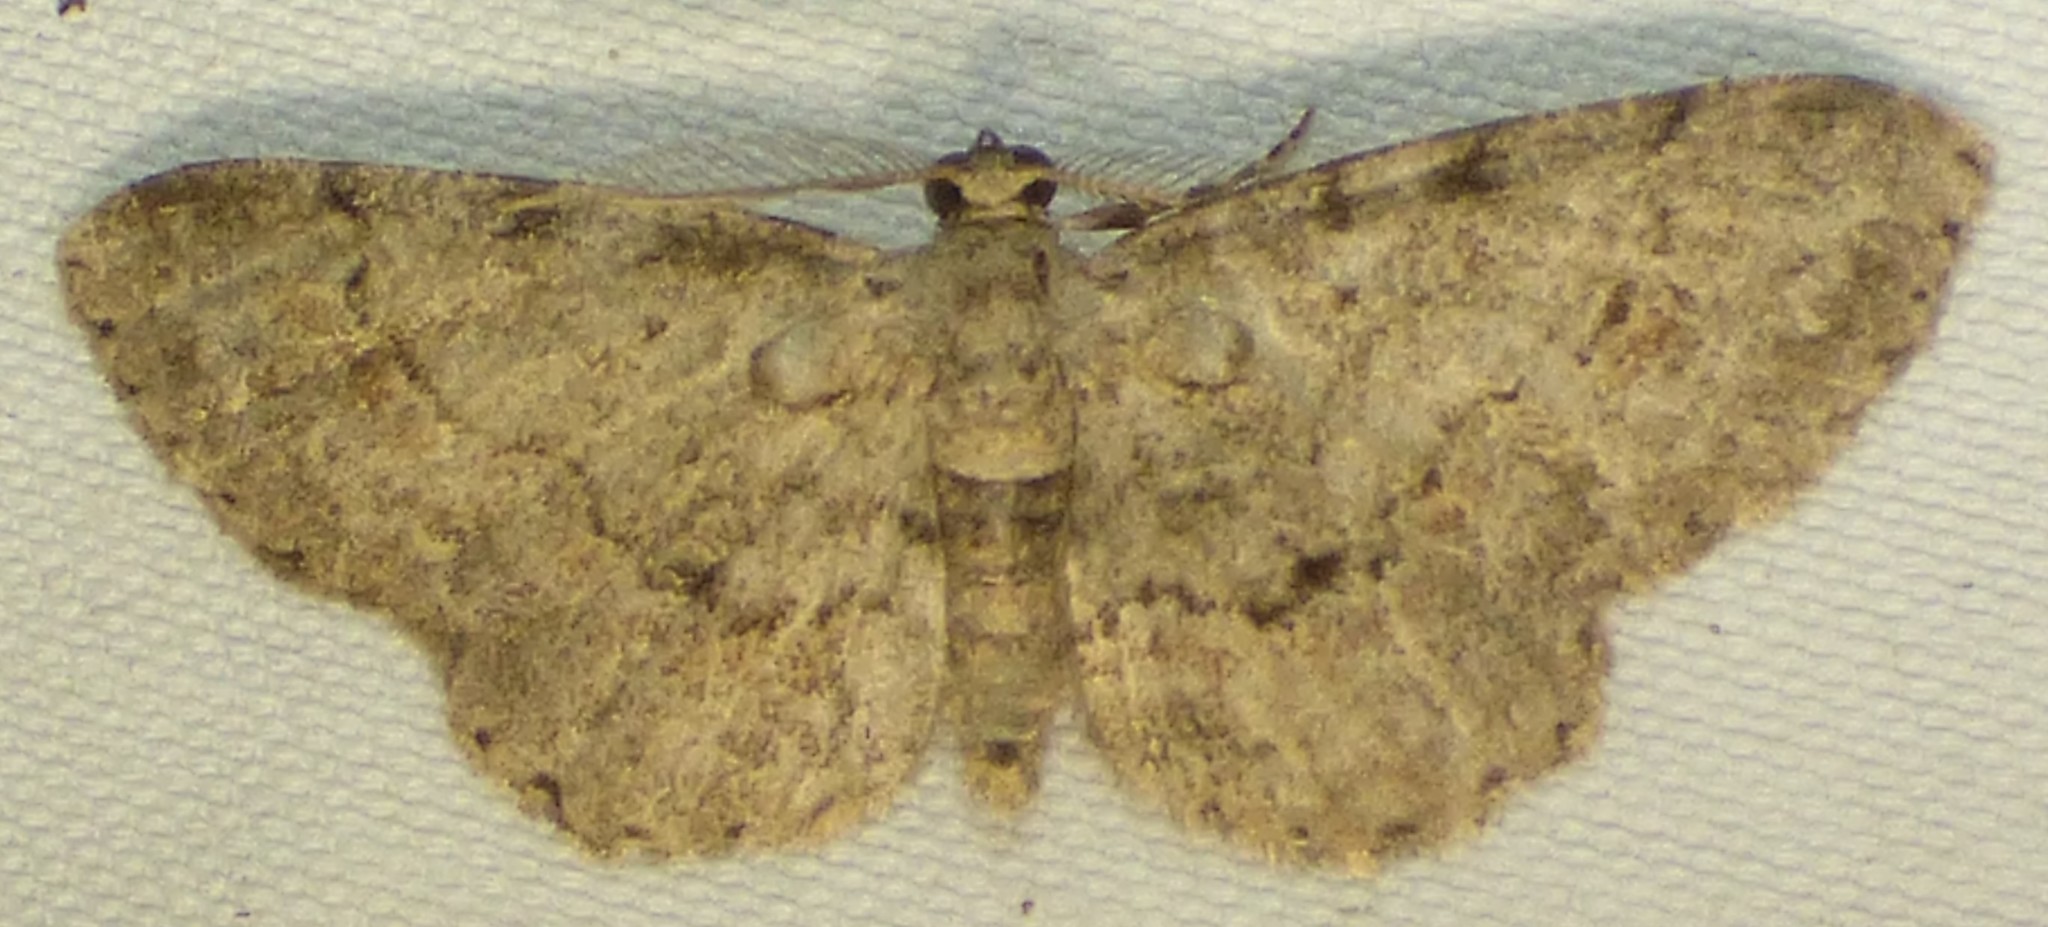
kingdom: Animalia
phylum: Arthropoda
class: Insecta
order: Lepidoptera
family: Geometridae
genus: Glenoides
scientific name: Glenoides texanaria
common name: Texas gray
